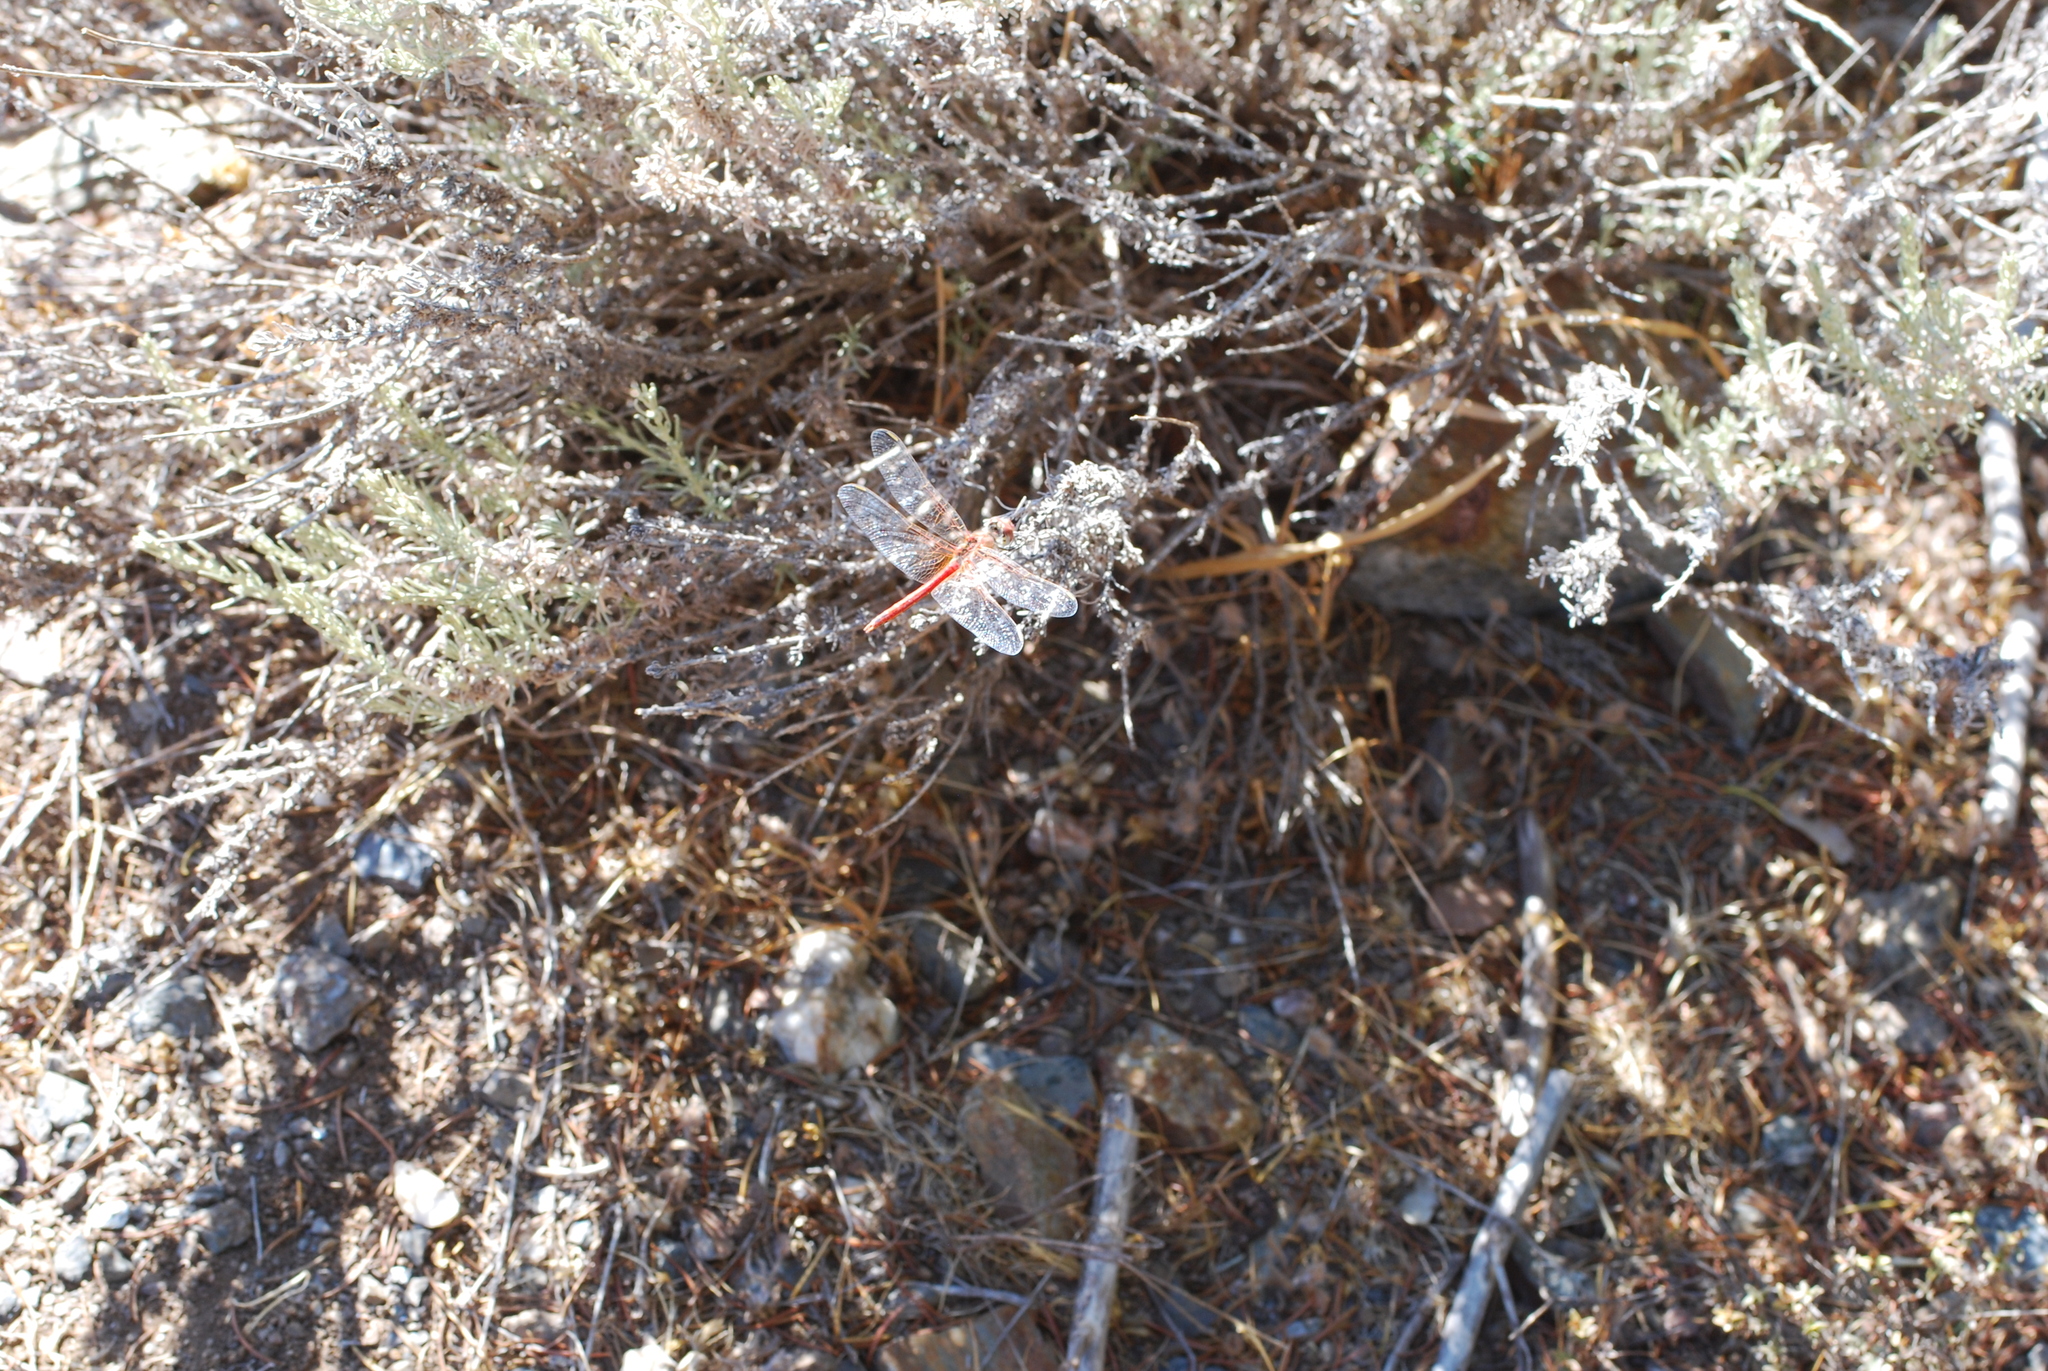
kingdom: Animalia
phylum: Arthropoda
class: Insecta
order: Odonata
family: Libellulidae
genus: Sympetrum
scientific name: Sympetrum fonscolombii
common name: Red-veined darter
